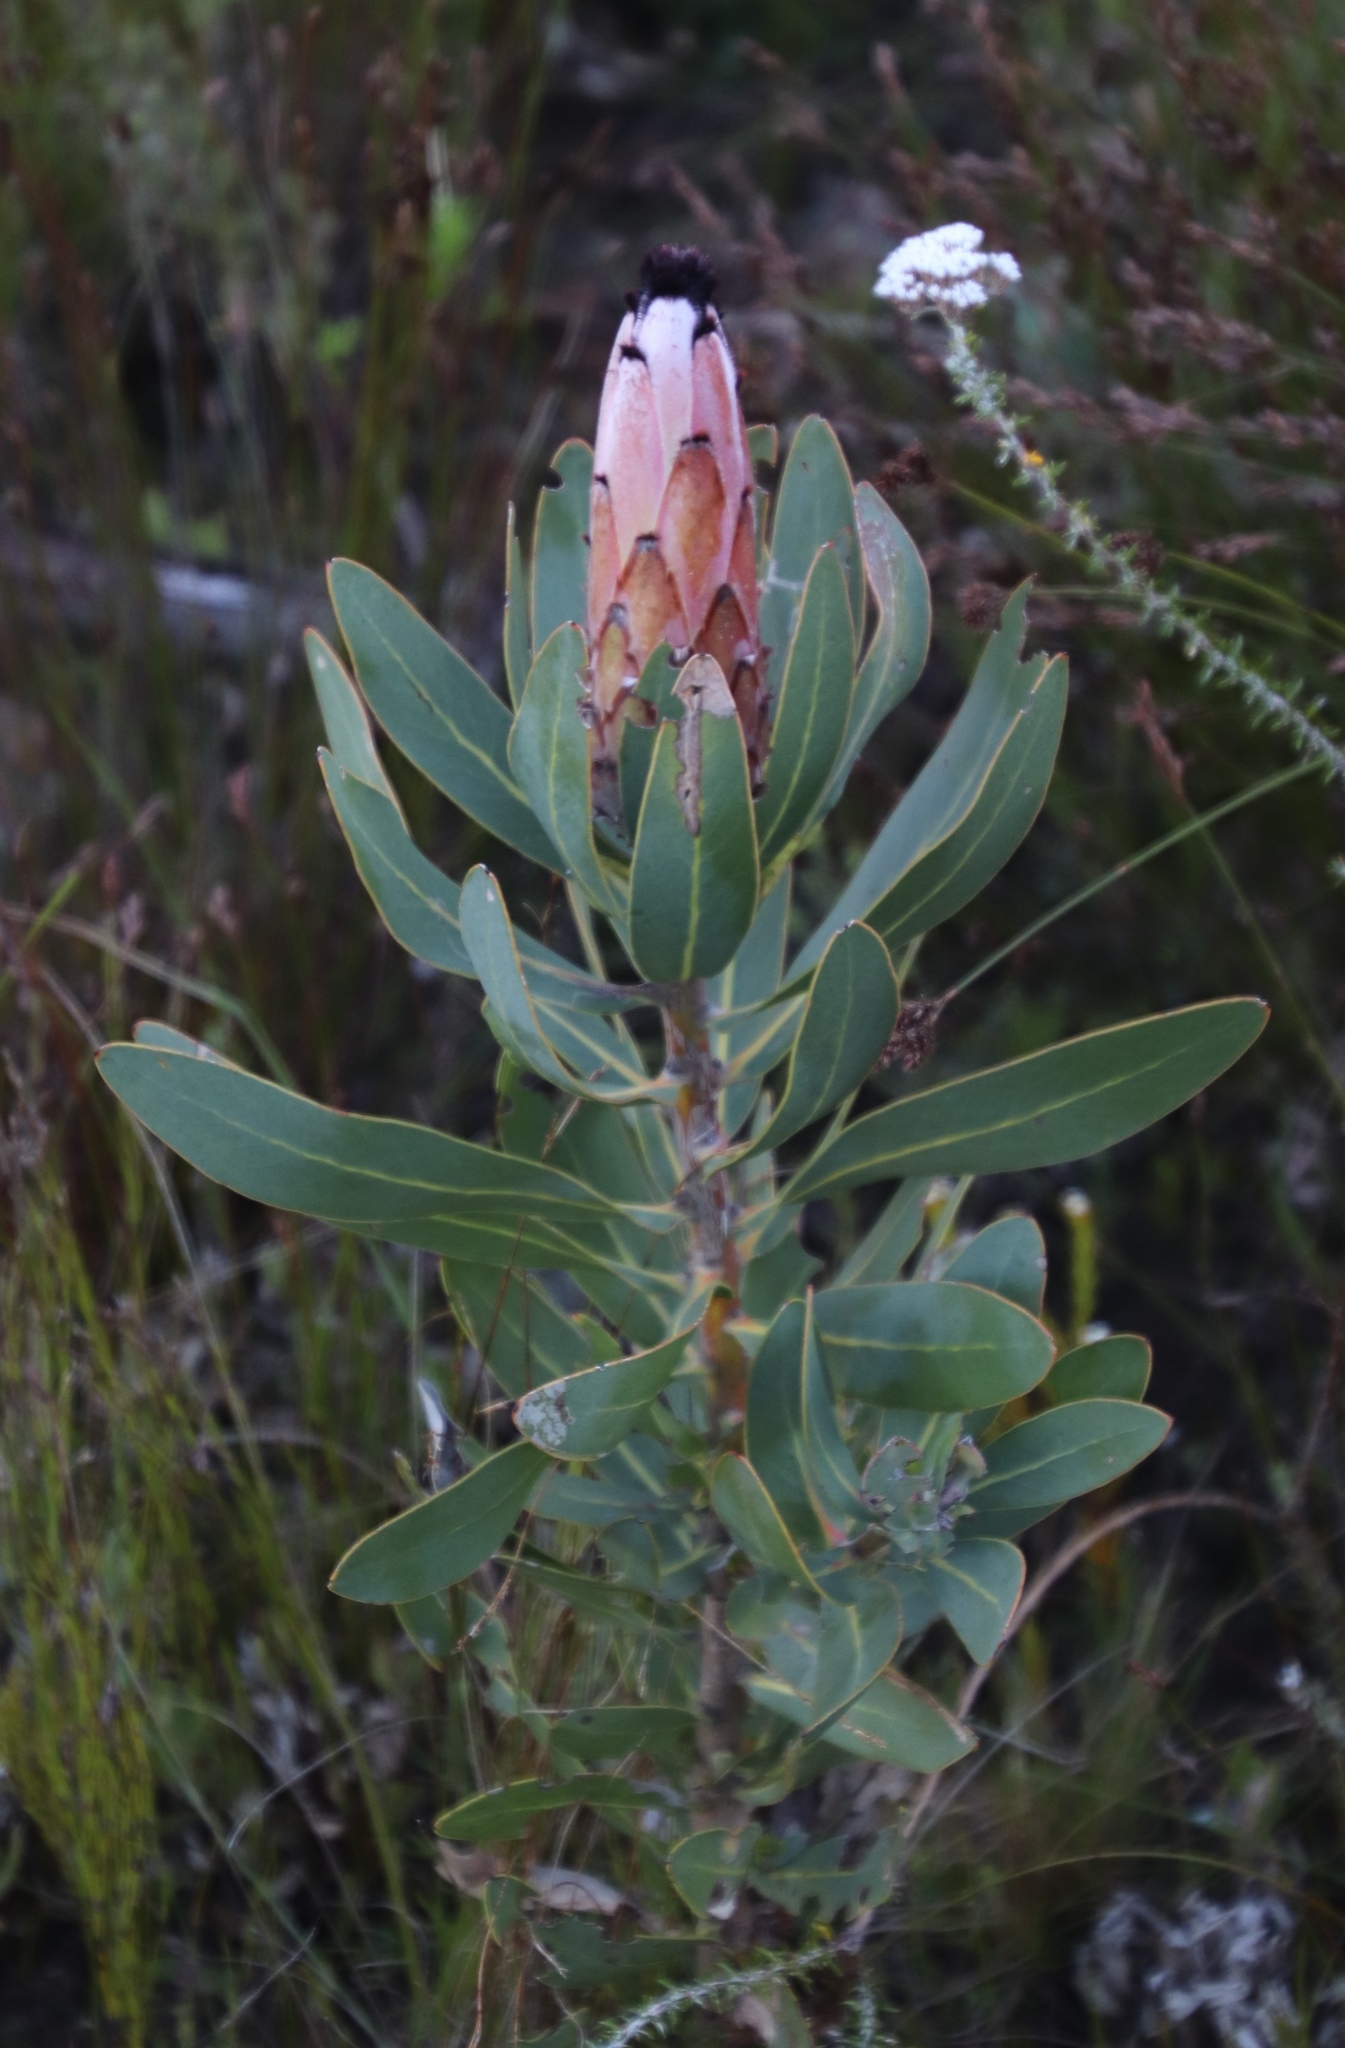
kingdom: Plantae
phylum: Tracheophyta
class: Magnoliopsida
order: Proteales
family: Proteaceae
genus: Protea
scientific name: Protea laurifolia
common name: Grey-leaf sugarbsh
